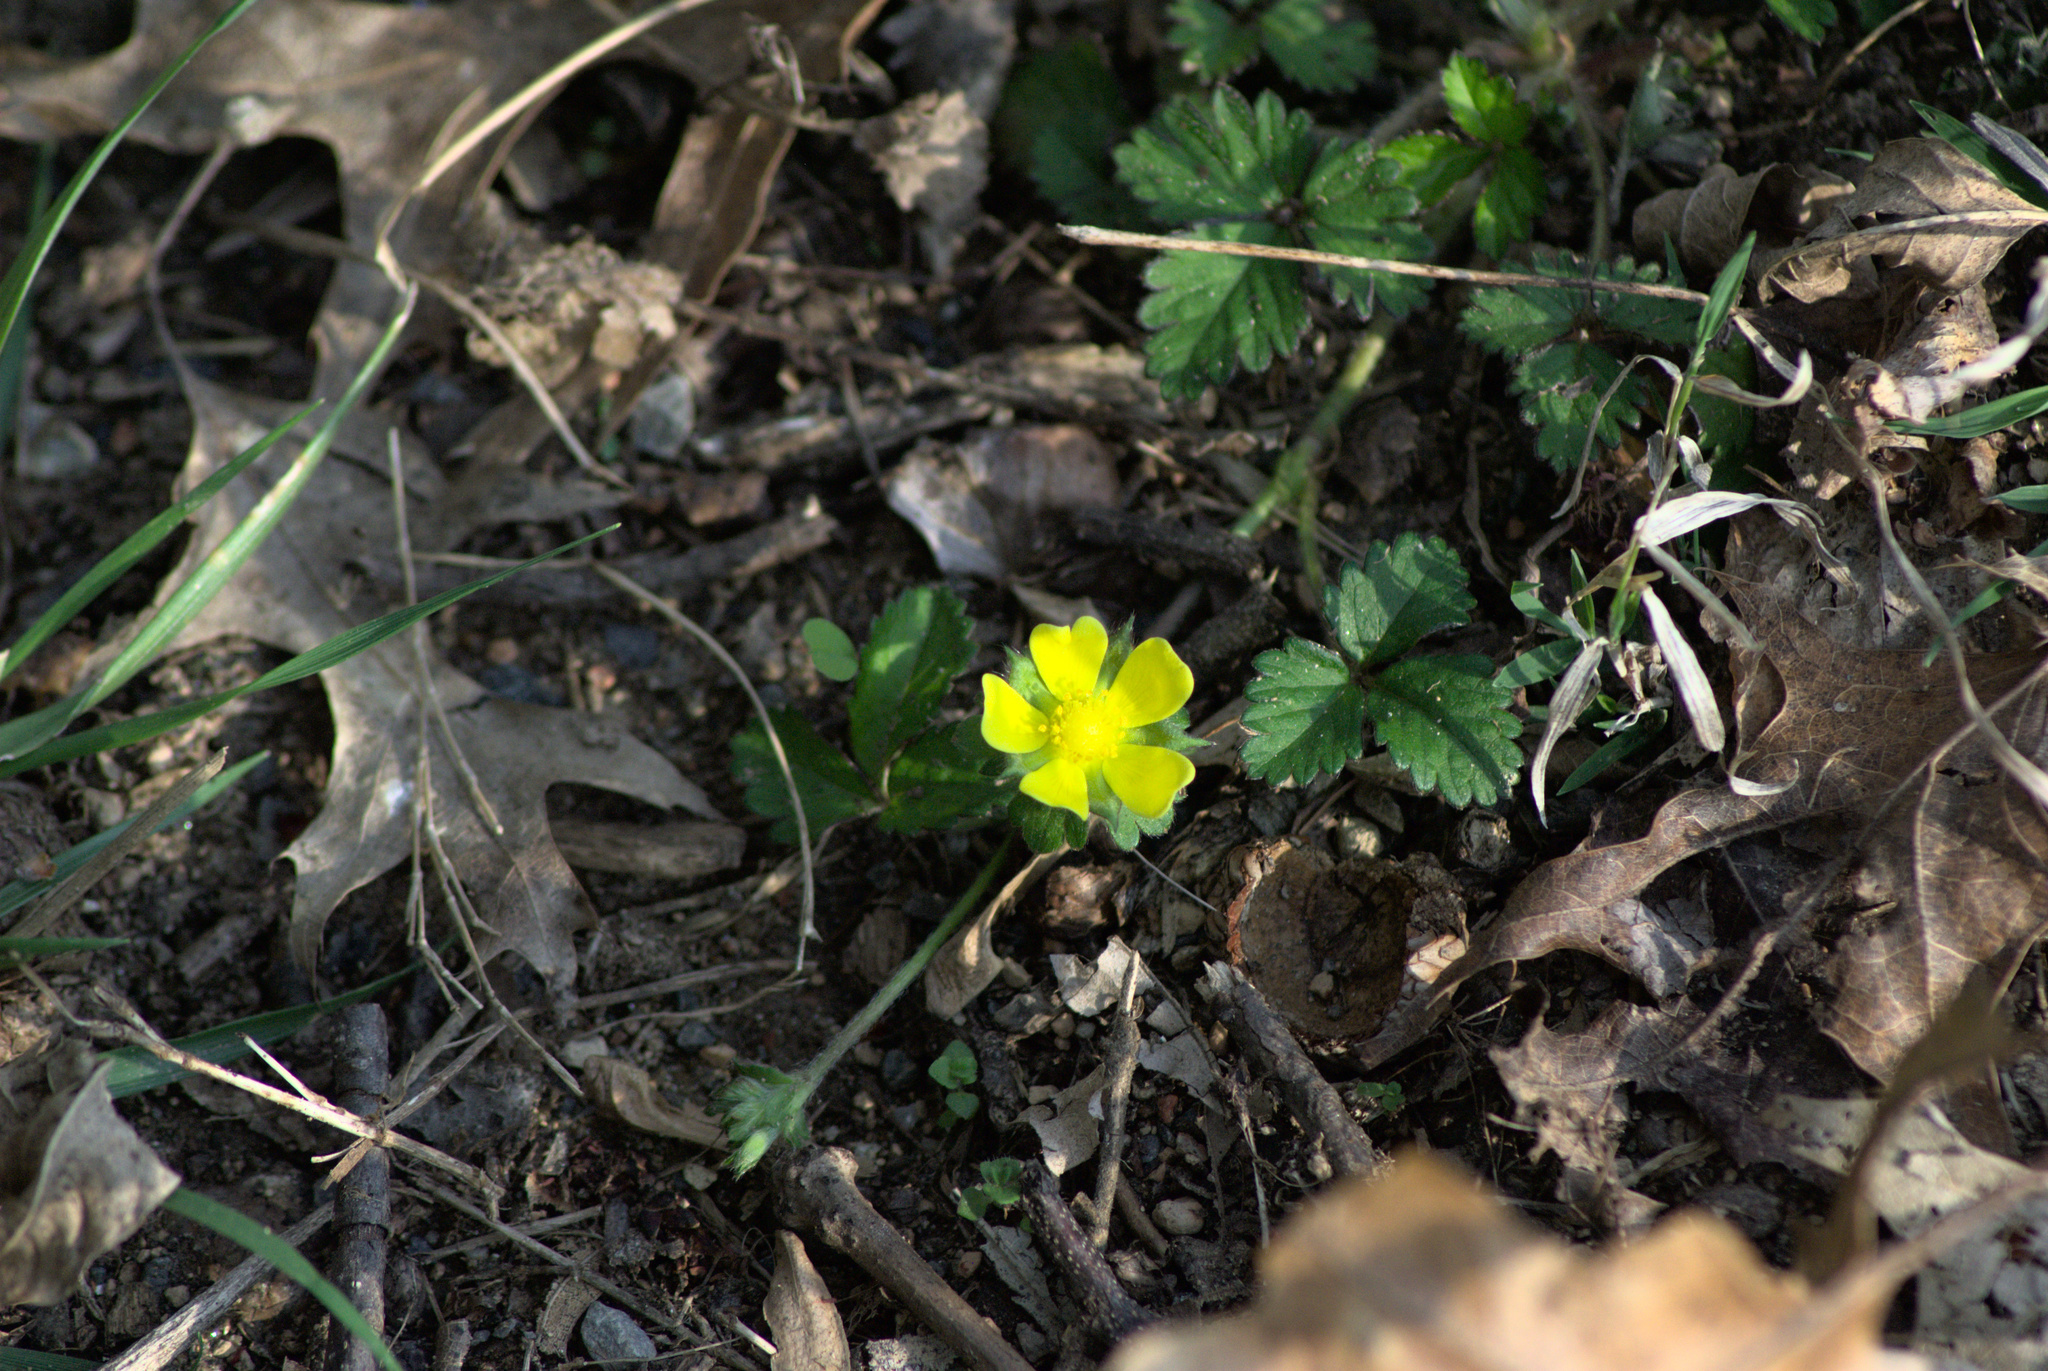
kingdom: Plantae
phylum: Tracheophyta
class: Magnoliopsida
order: Rosales
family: Rosaceae
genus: Potentilla
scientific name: Potentilla indica
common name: Yellow-flowered strawberry
